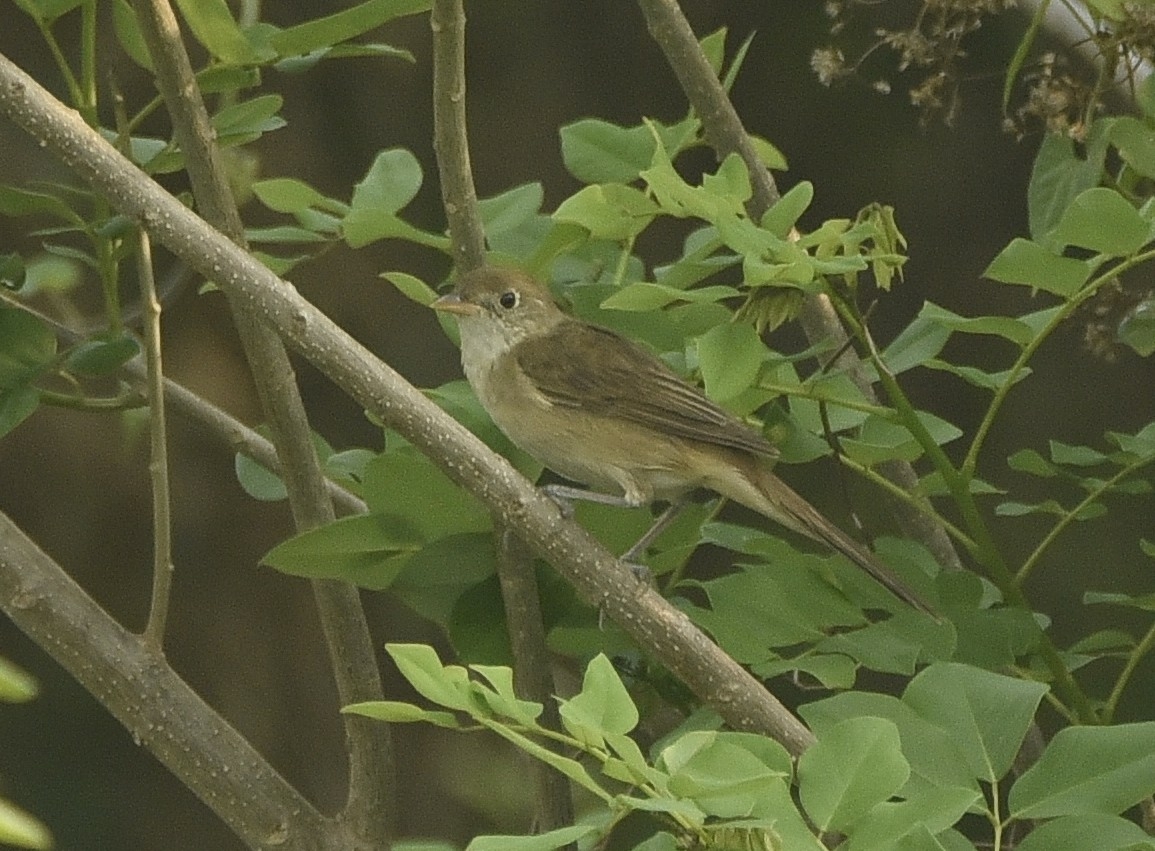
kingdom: Animalia
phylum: Chordata
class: Aves
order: Passeriformes
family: Acrocephalidae
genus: Iduna
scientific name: Iduna aedon
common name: Thick-billed warbler
